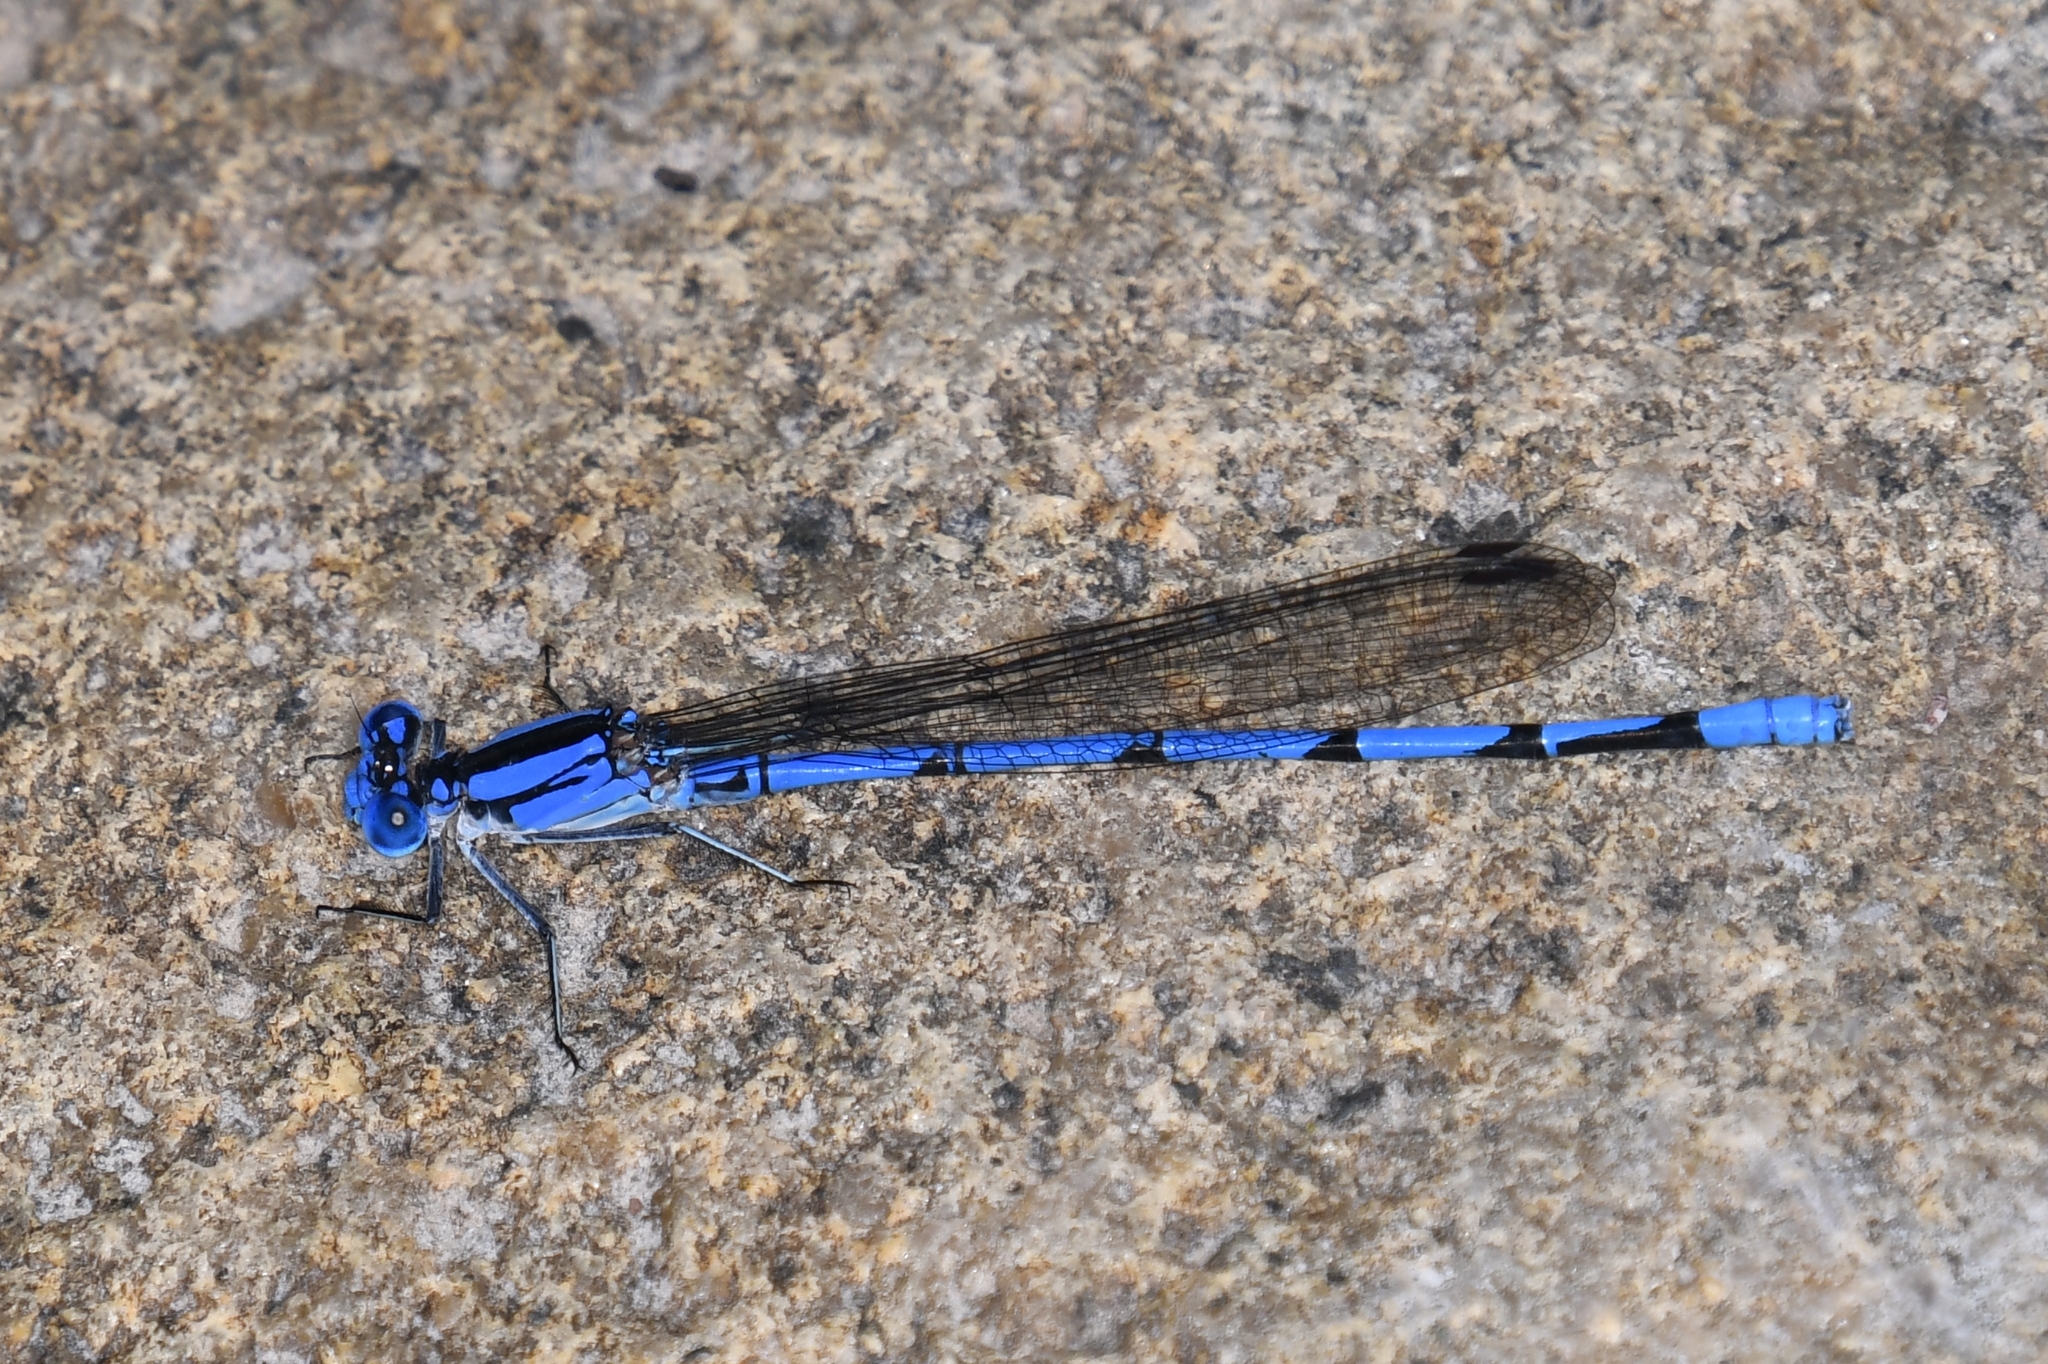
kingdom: Animalia
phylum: Arthropoda
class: Insecta
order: Odonata
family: Coenagrionidae
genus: Argia
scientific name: Argia lacrimans
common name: Sierra madre dancer
